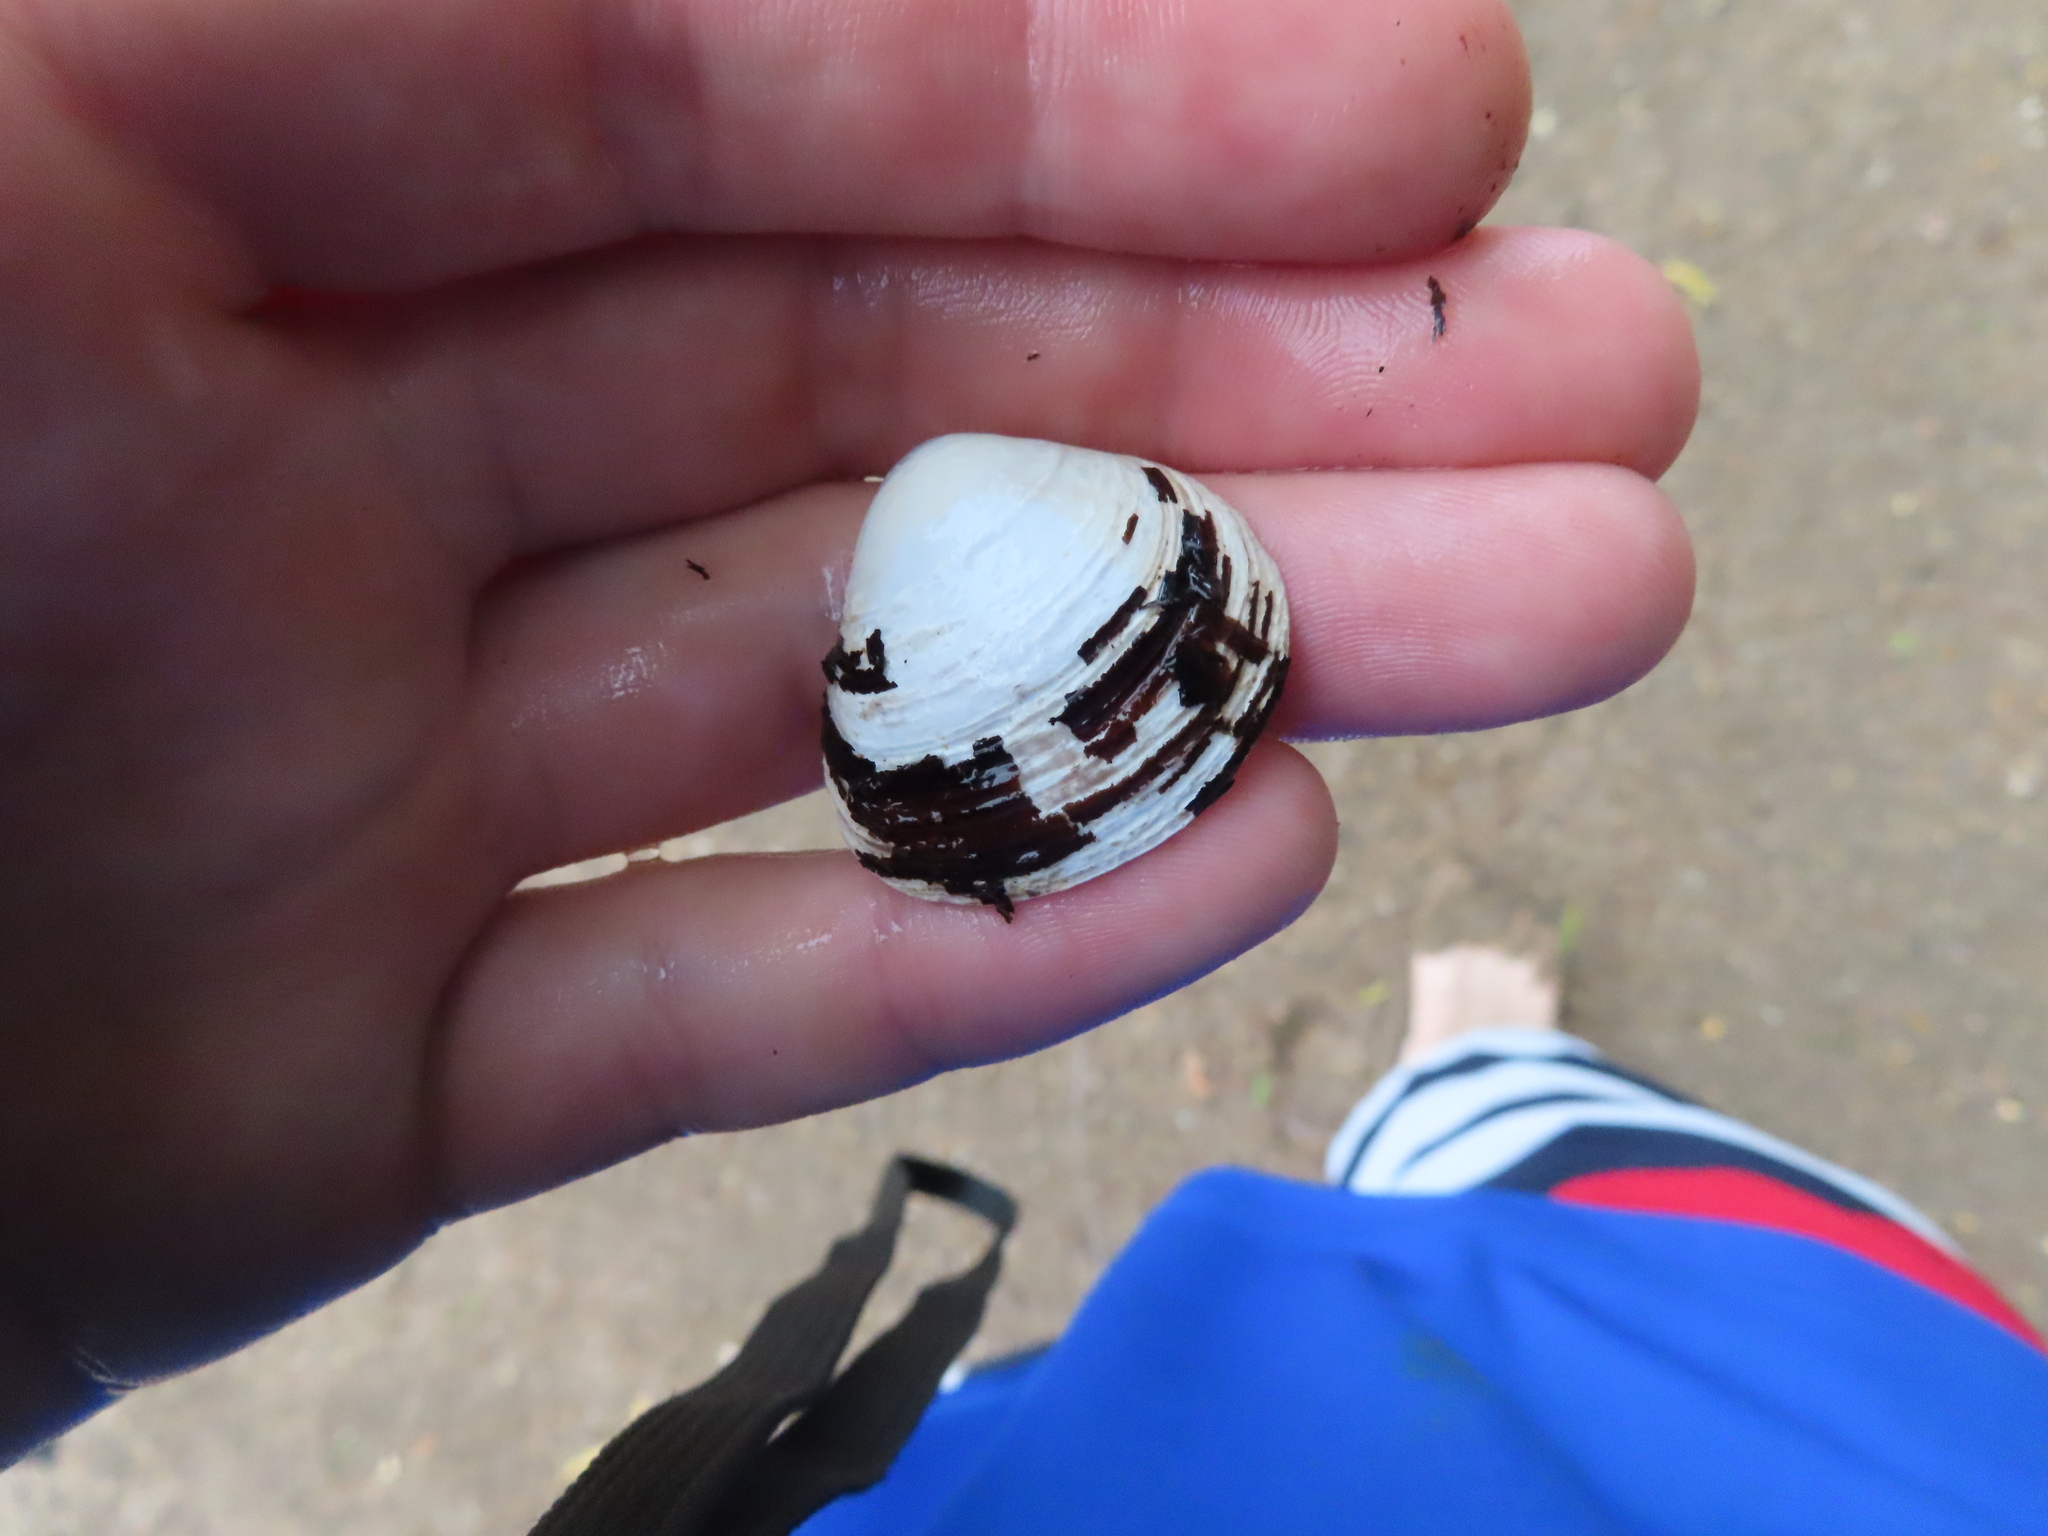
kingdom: Animalia
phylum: Mollusca
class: Bivalvia
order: Venerida
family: Cyrenidae
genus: Corbicula
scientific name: Corbicula fluminea
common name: Asian clam
